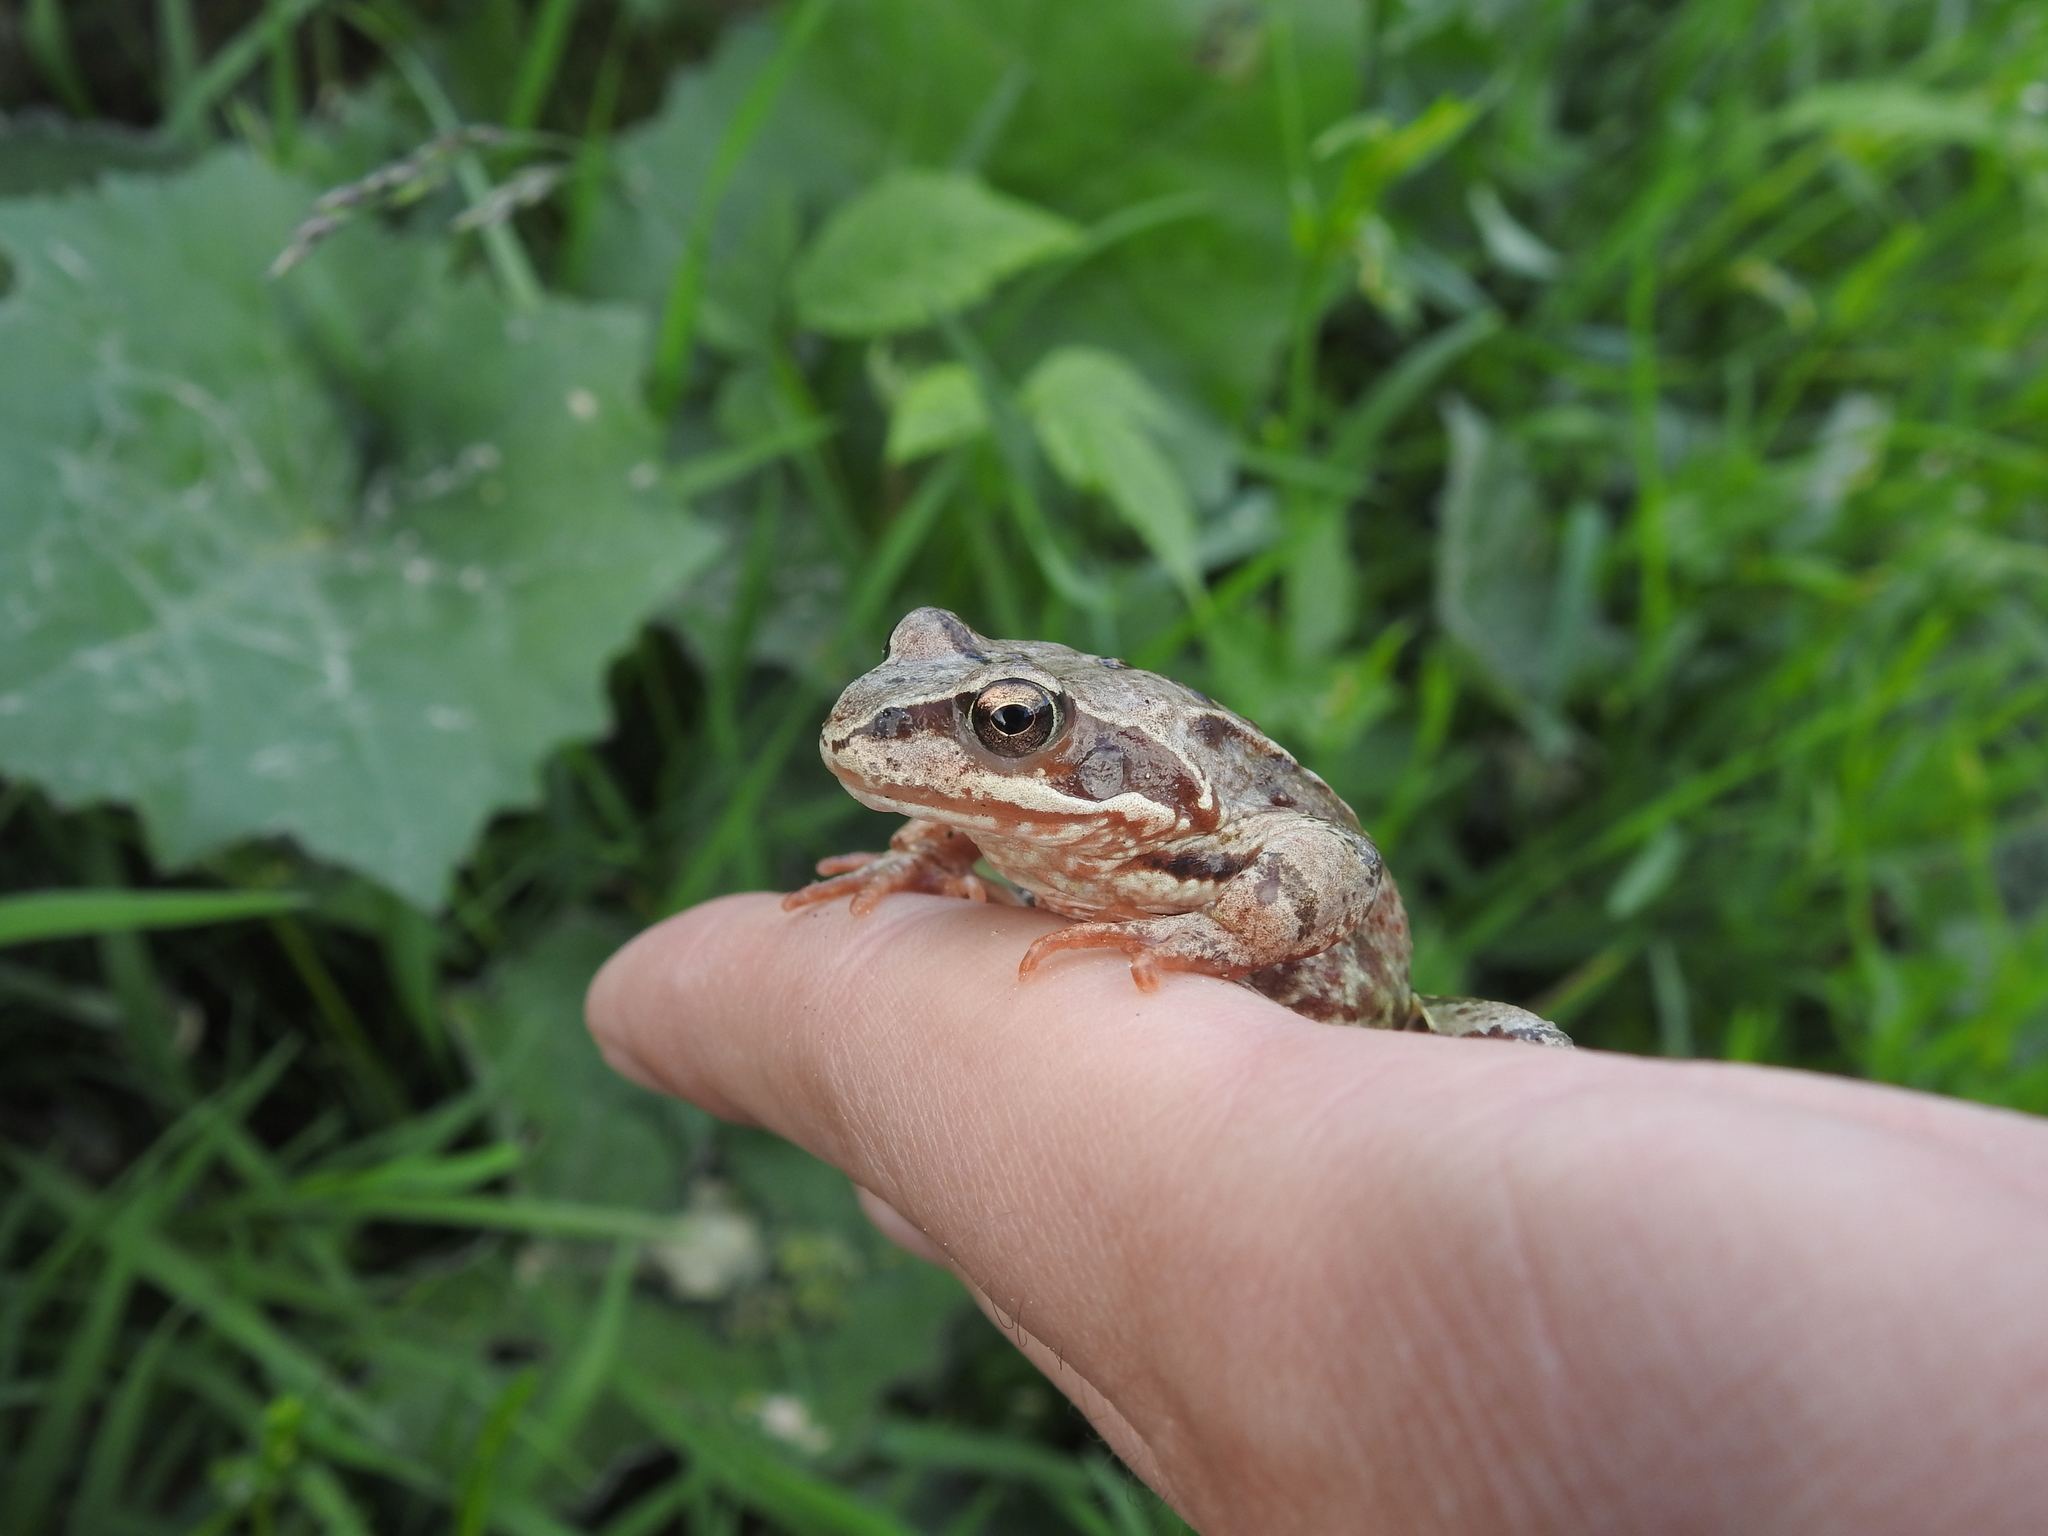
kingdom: Animalia
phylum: Chordata
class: Amphibia
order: Anura
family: Ranidae
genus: Rana
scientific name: Rana temporaria
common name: Common frog
